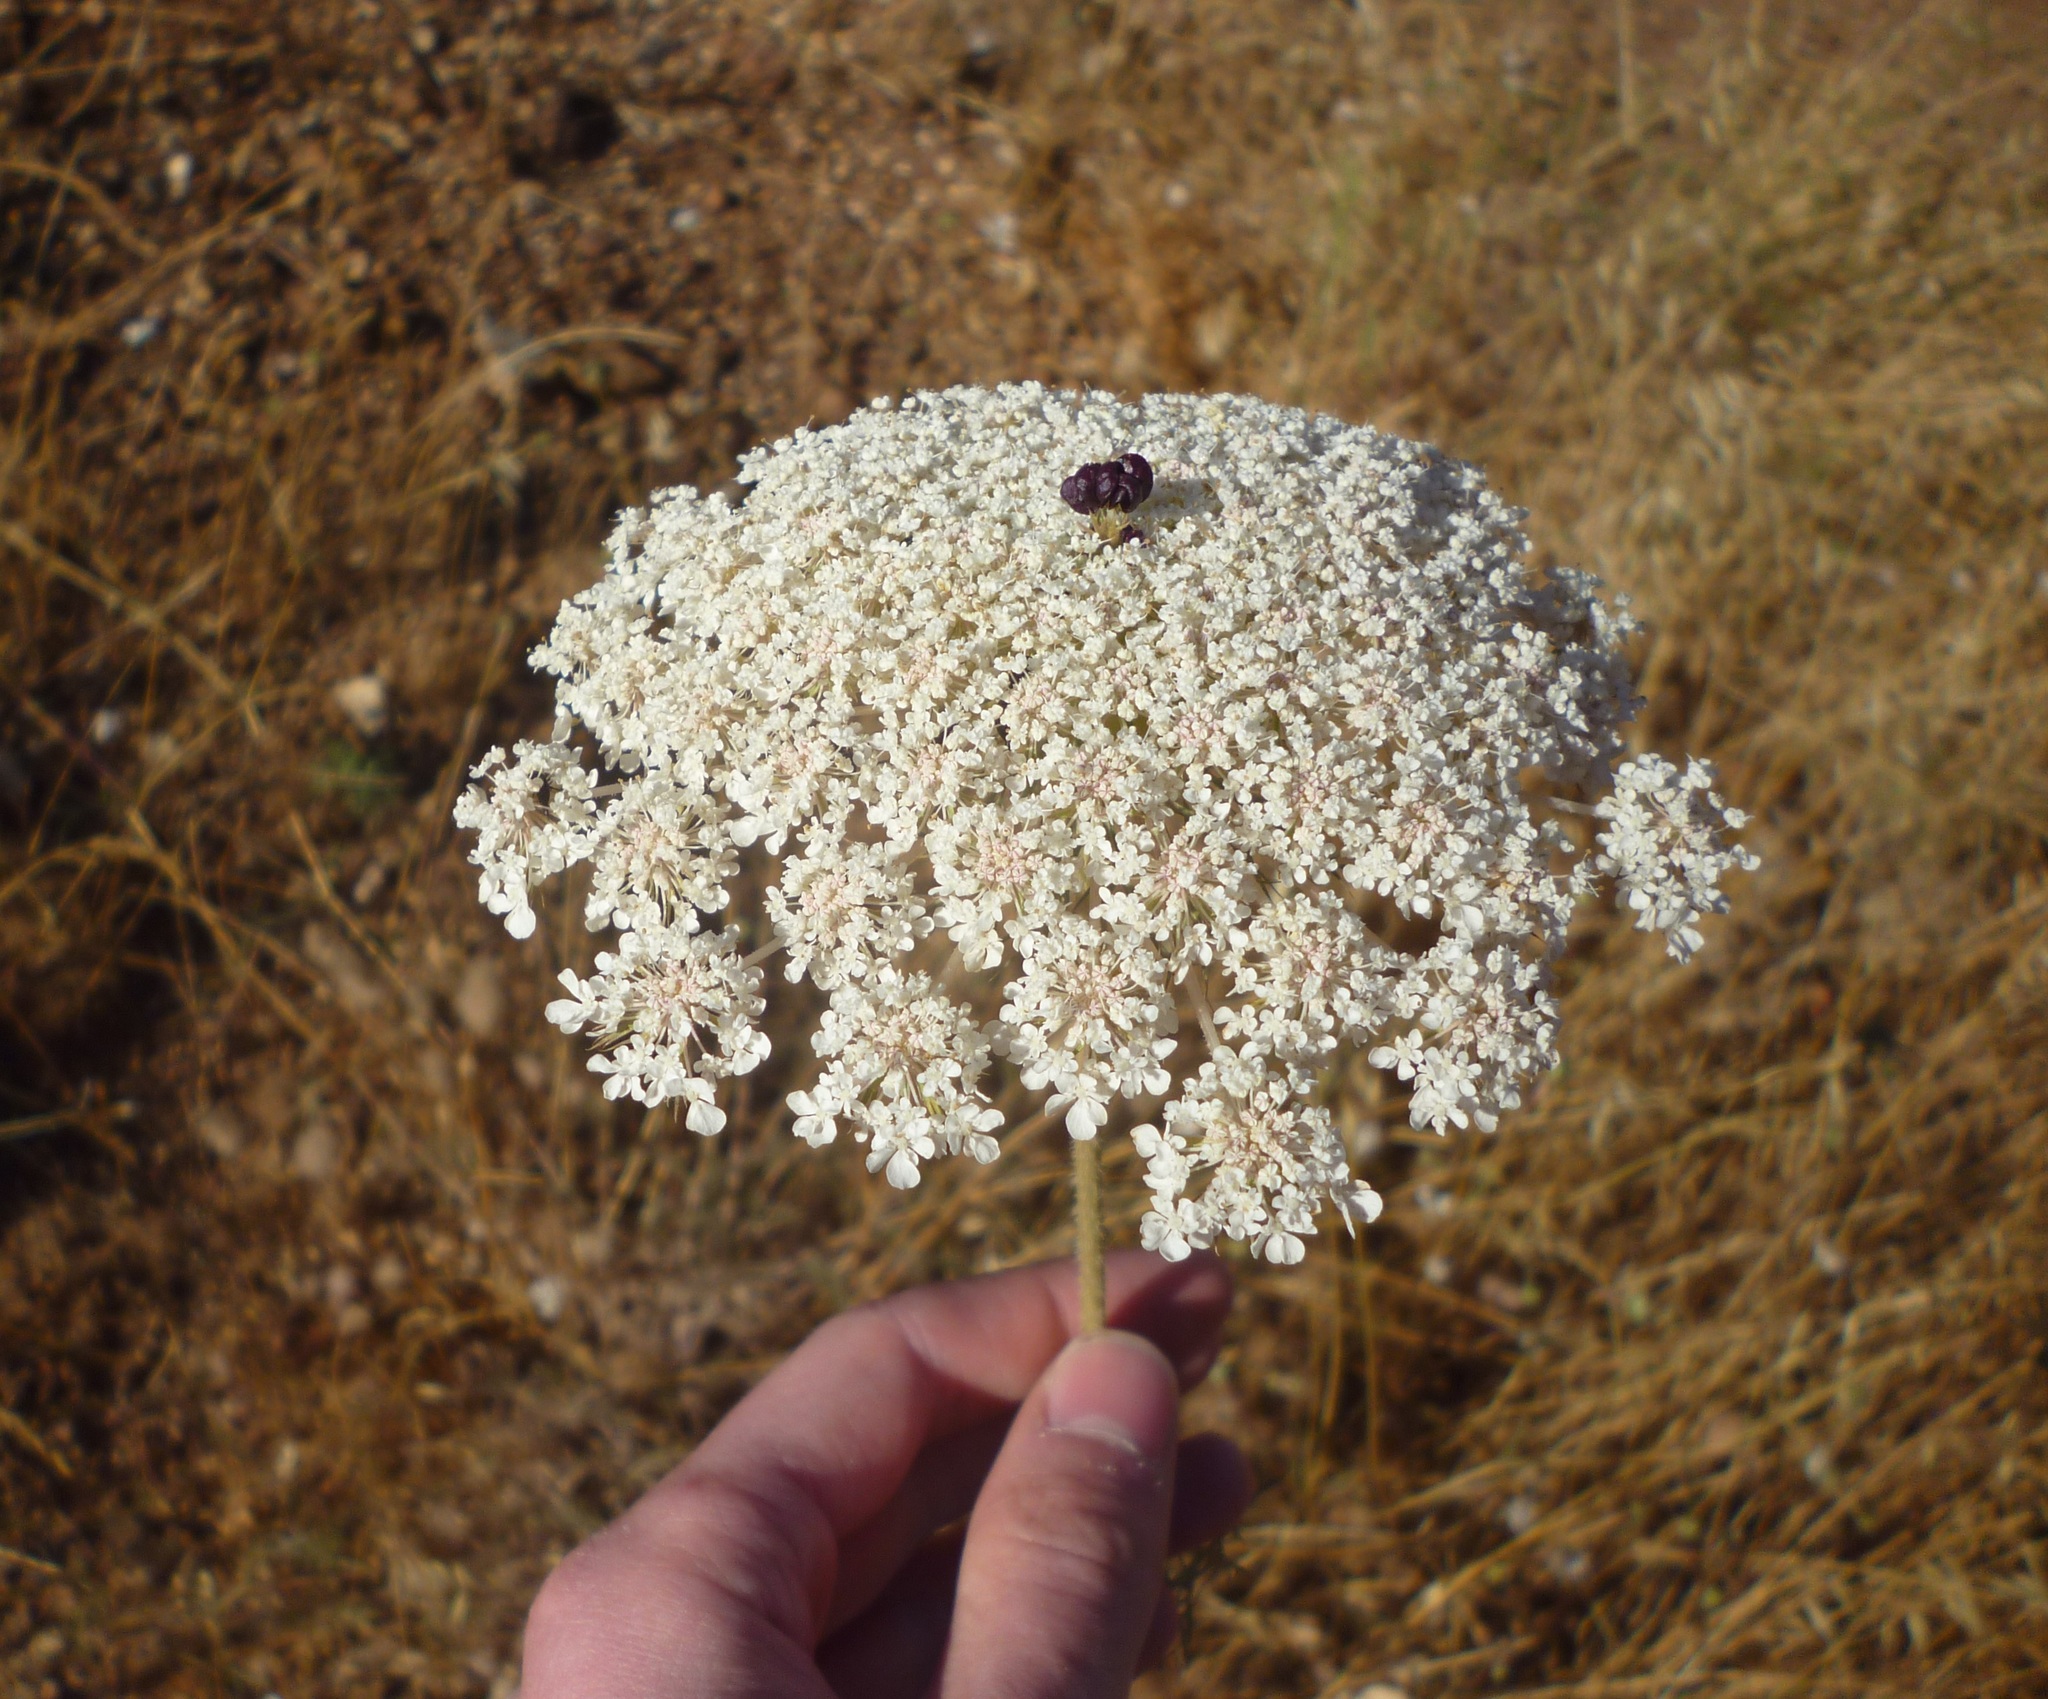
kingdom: Plantae
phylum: Tracheophyta
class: Magnoliopsida
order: Apiales
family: Apiaceae
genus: Daucus
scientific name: Daucus carota
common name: Wild carrot
